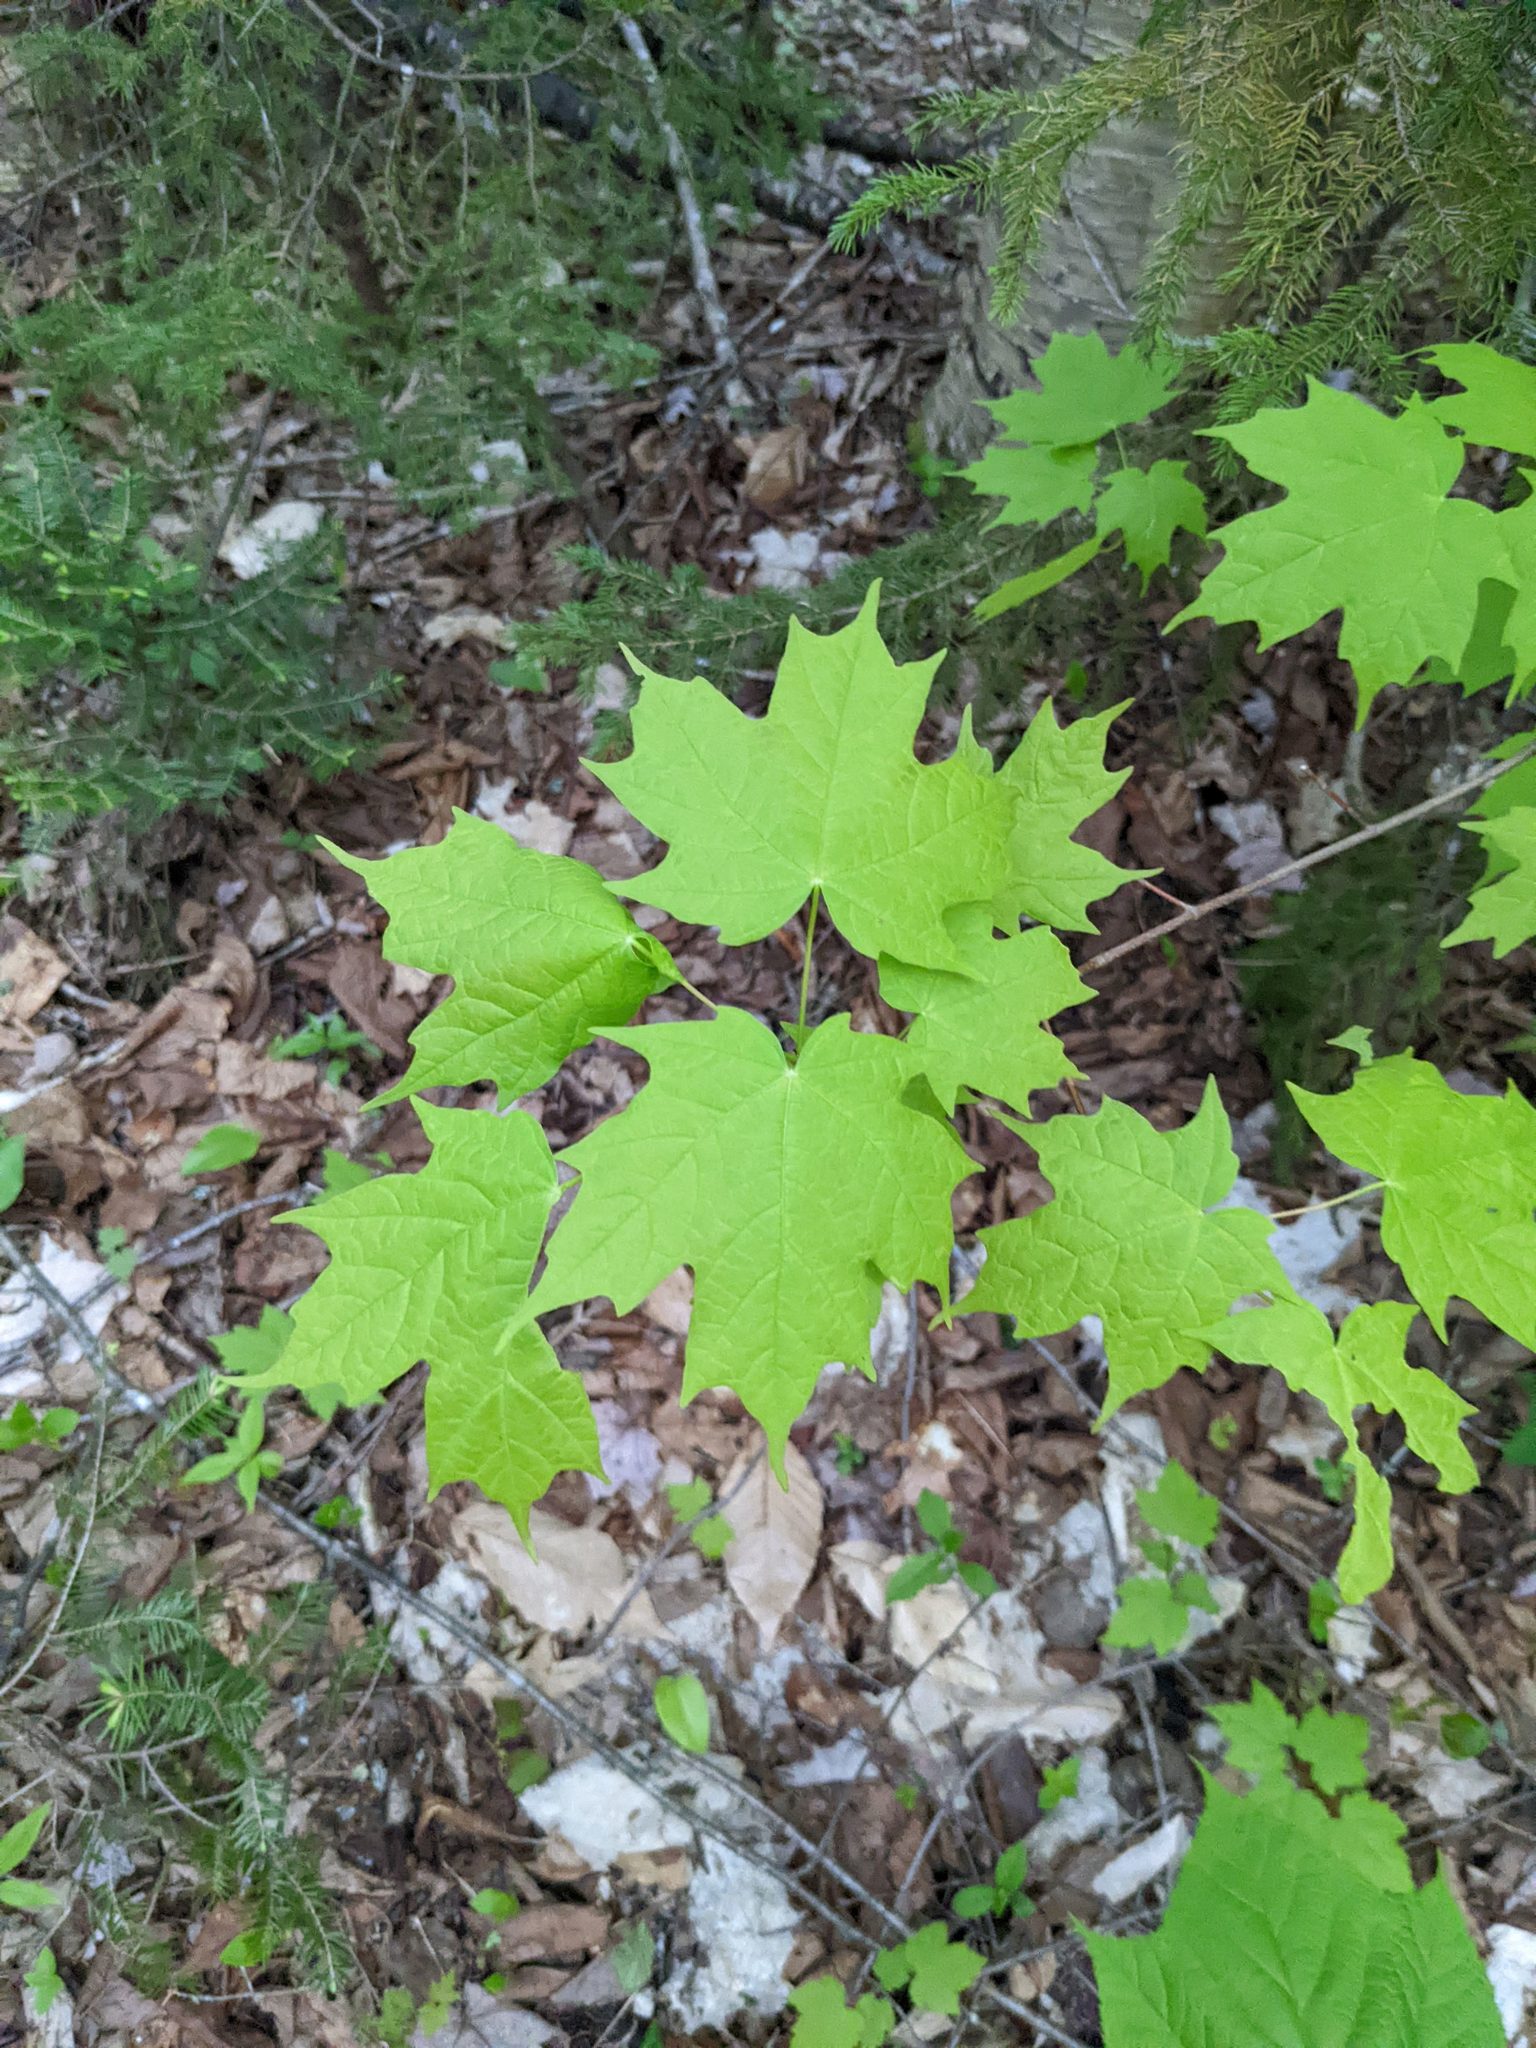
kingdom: Plantae
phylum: Tracheophyta
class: Magnoliopsida
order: Sapindales
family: Sapindaceae
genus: Acer
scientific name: Acer saccharum
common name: Sugar maple
